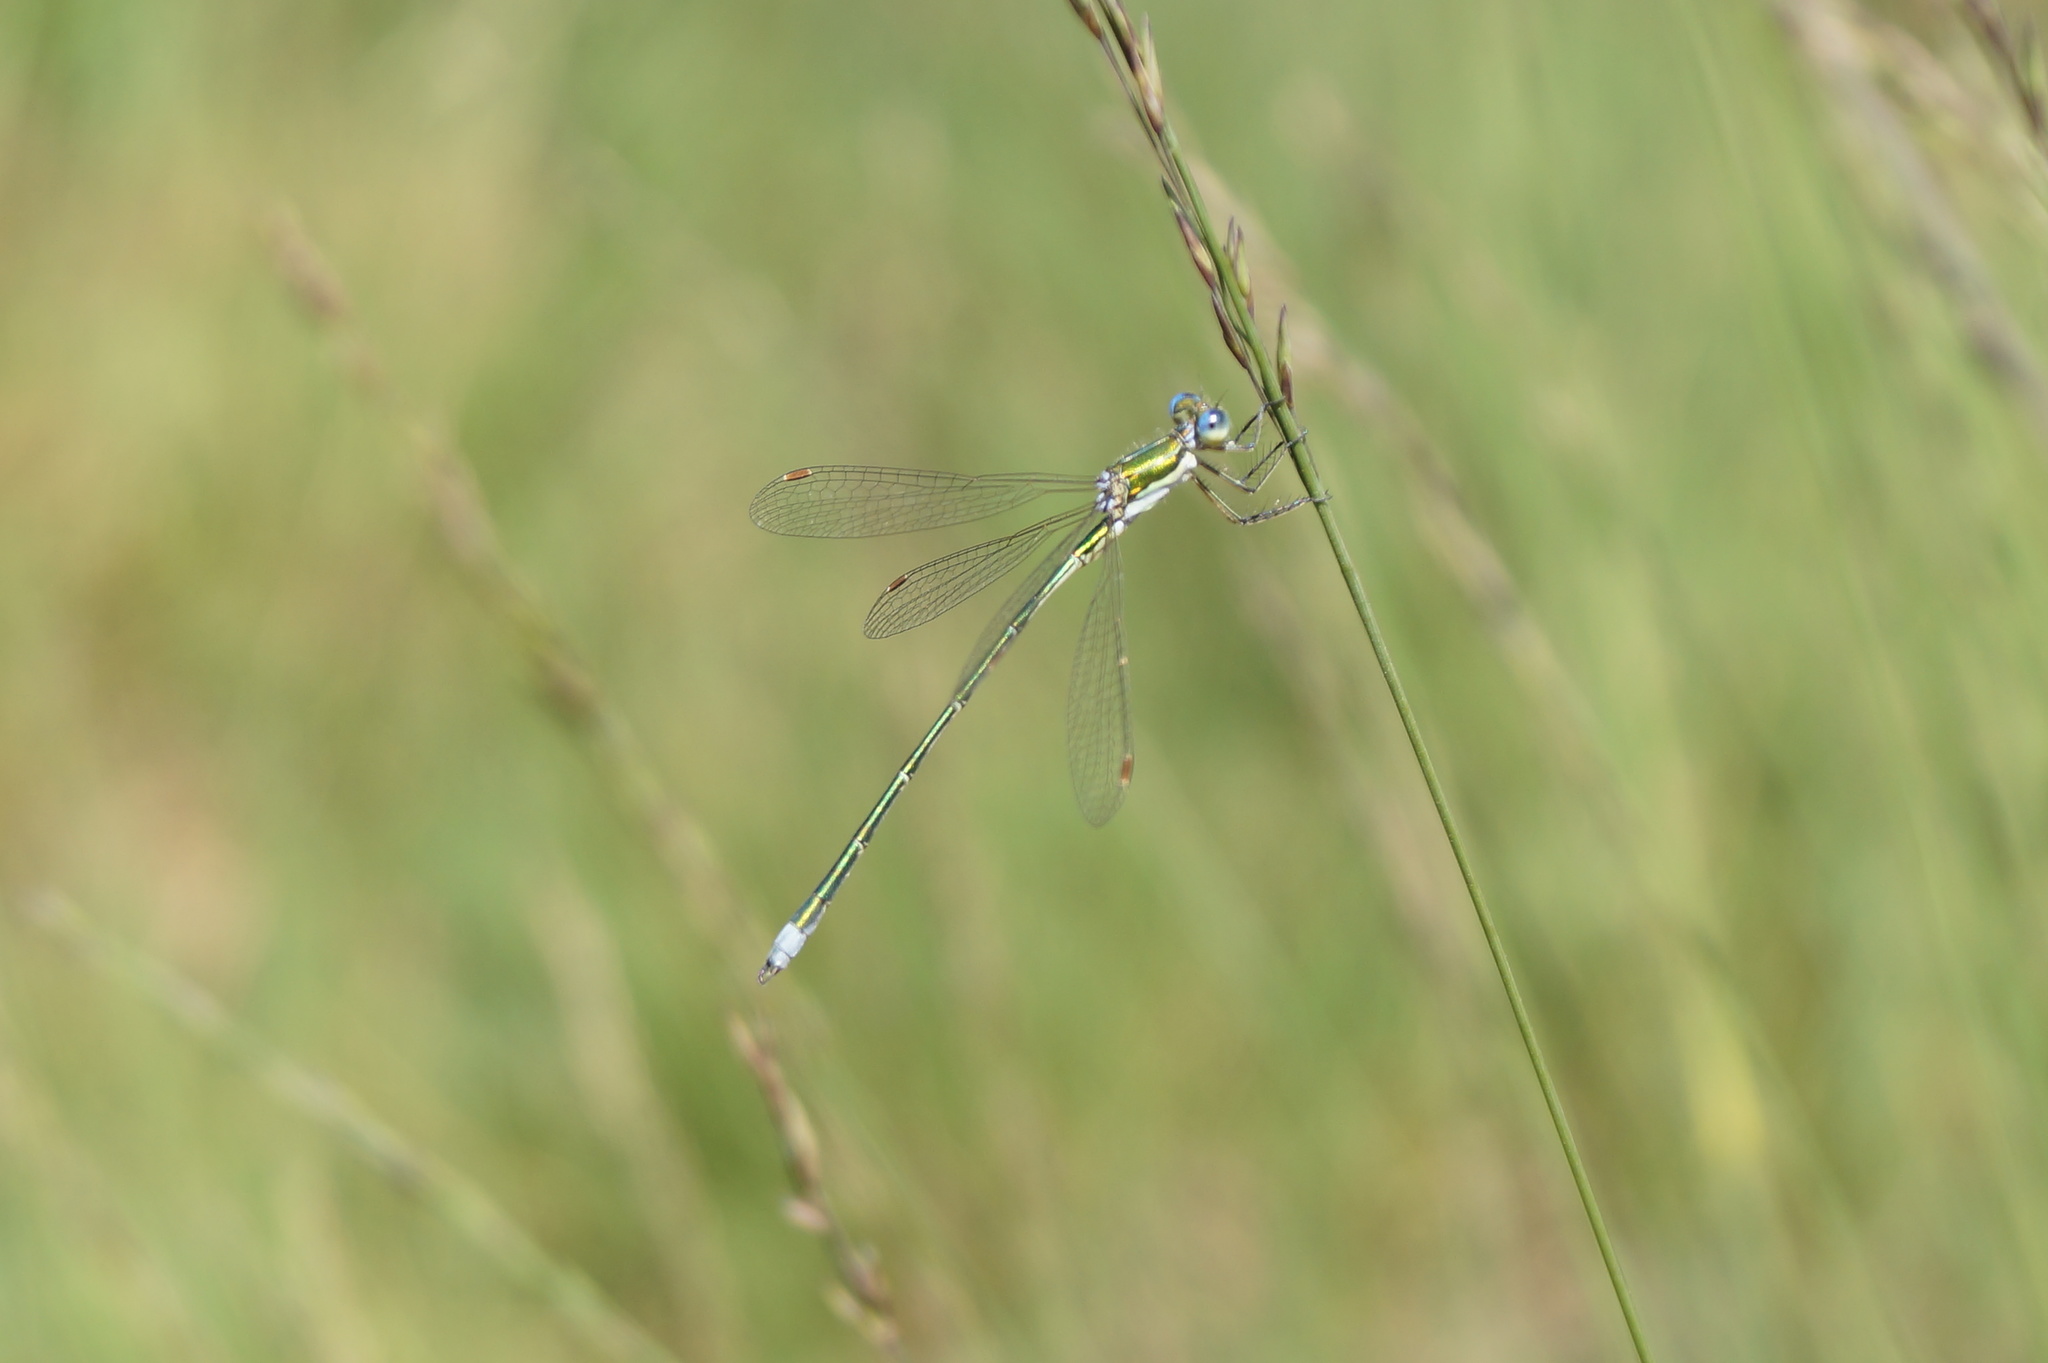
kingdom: Animalia
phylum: Arthropoda
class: Insecta
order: Odonata
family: Lestidae
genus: Lestes
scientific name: Lestes virens
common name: Small emerald spreadwing
